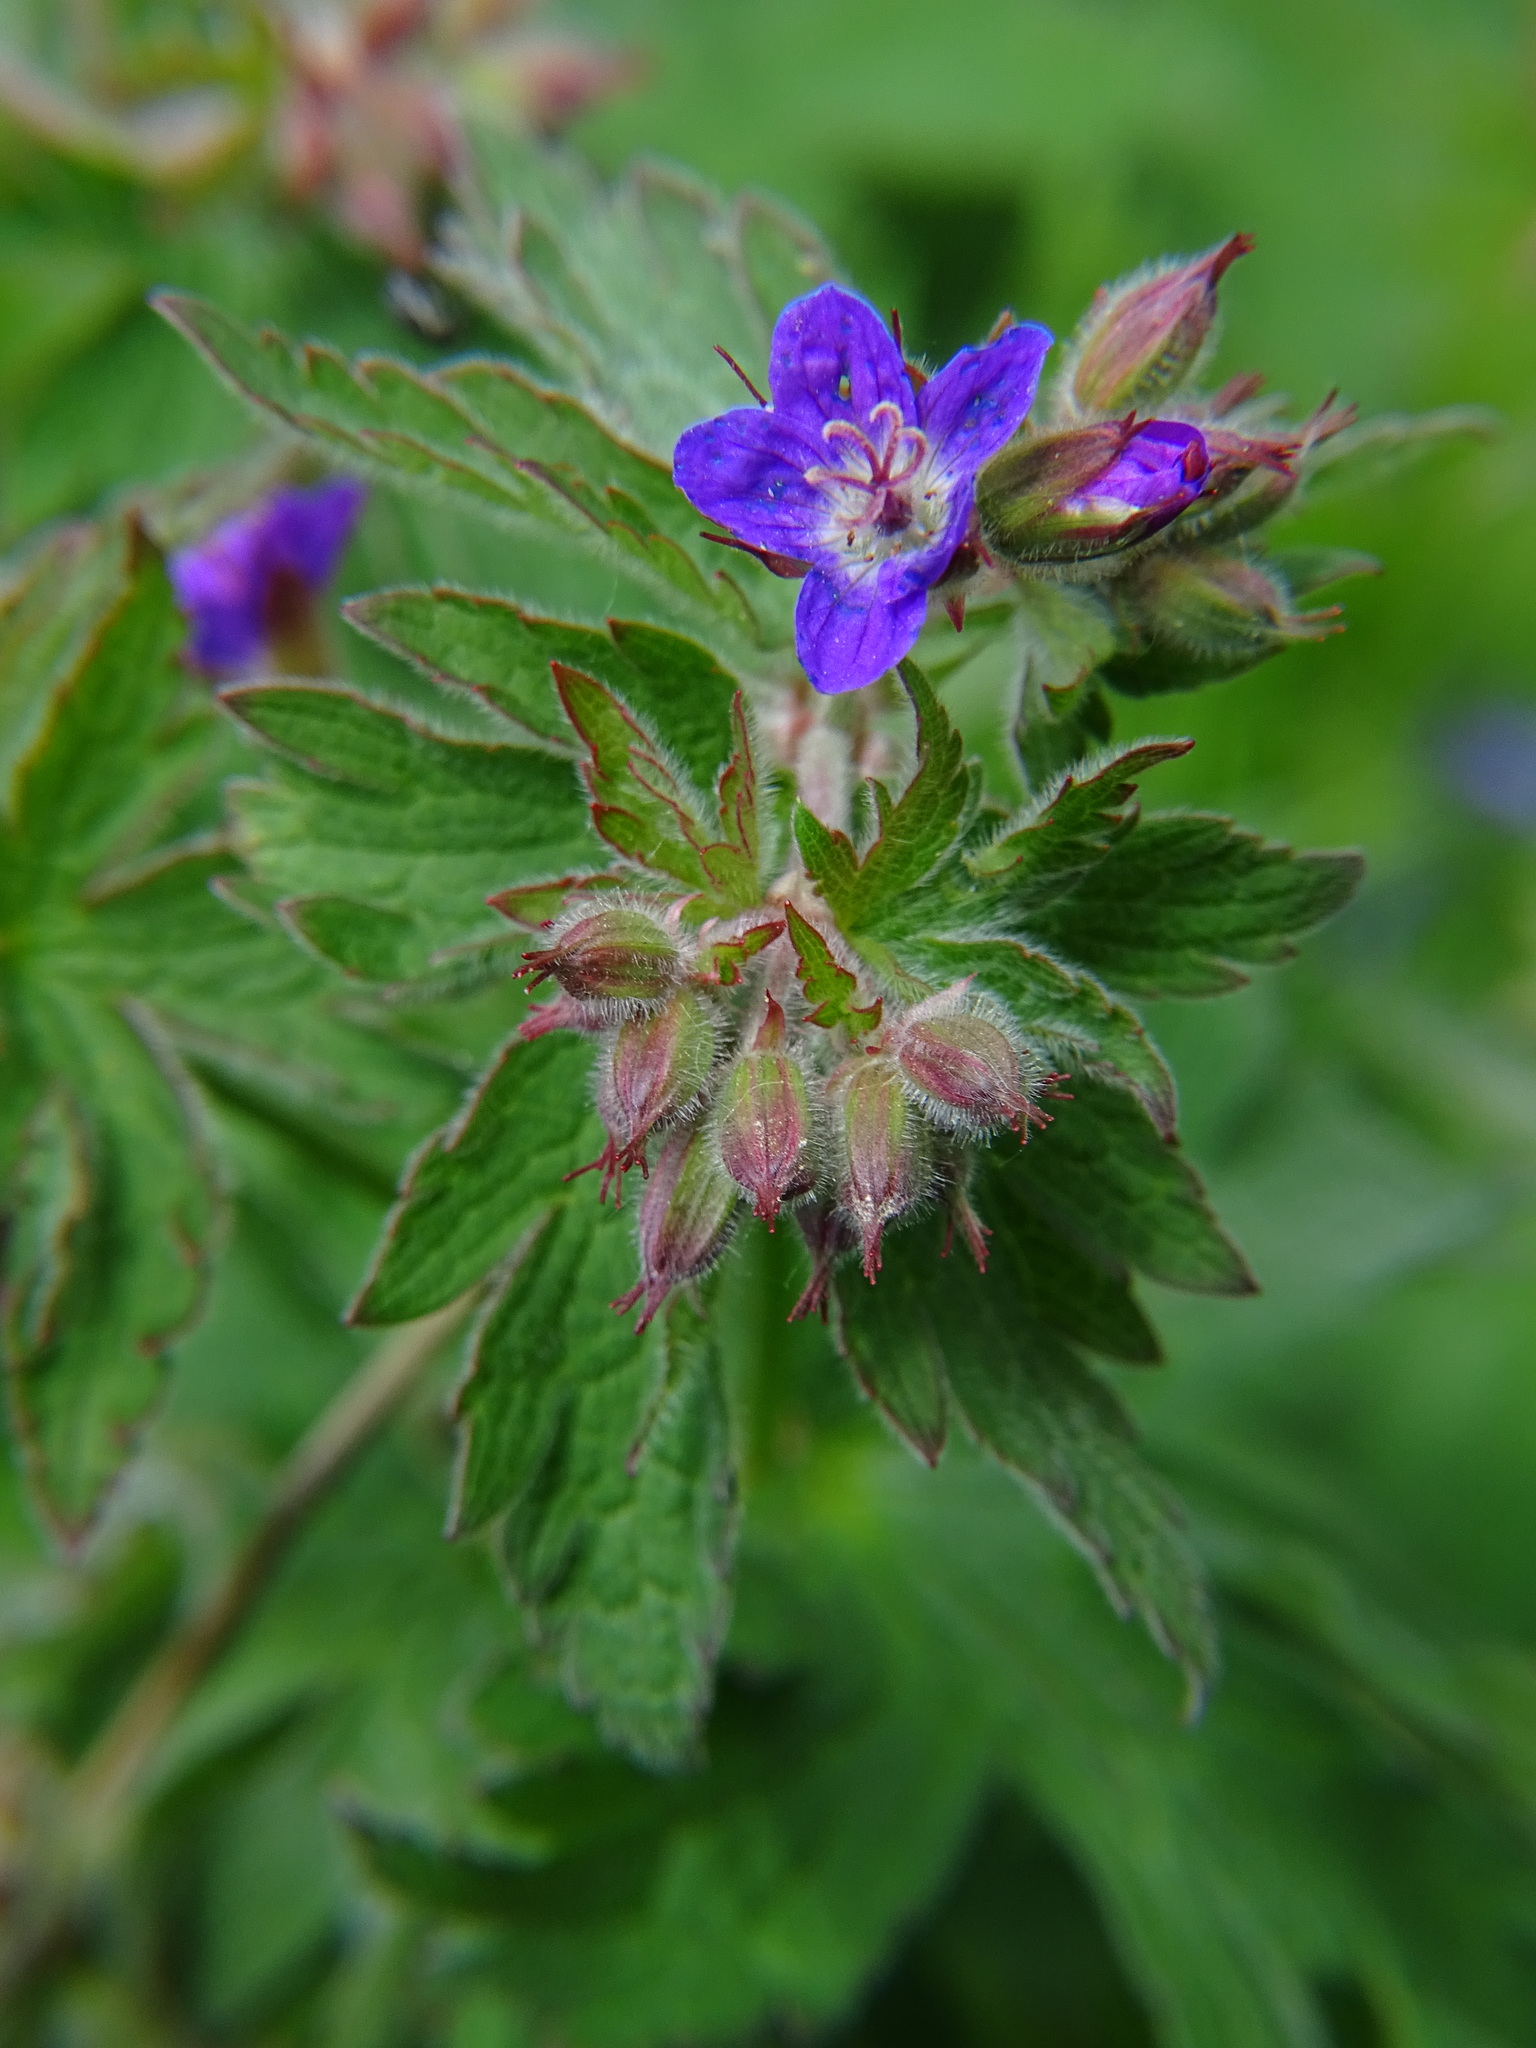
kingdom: Plantae
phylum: Tracheophyta
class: Magnoliopsida
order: Geraniales
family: Geraniaceae
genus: Geranium
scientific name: Geranium sylvaticum
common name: Wood crane's-bill
